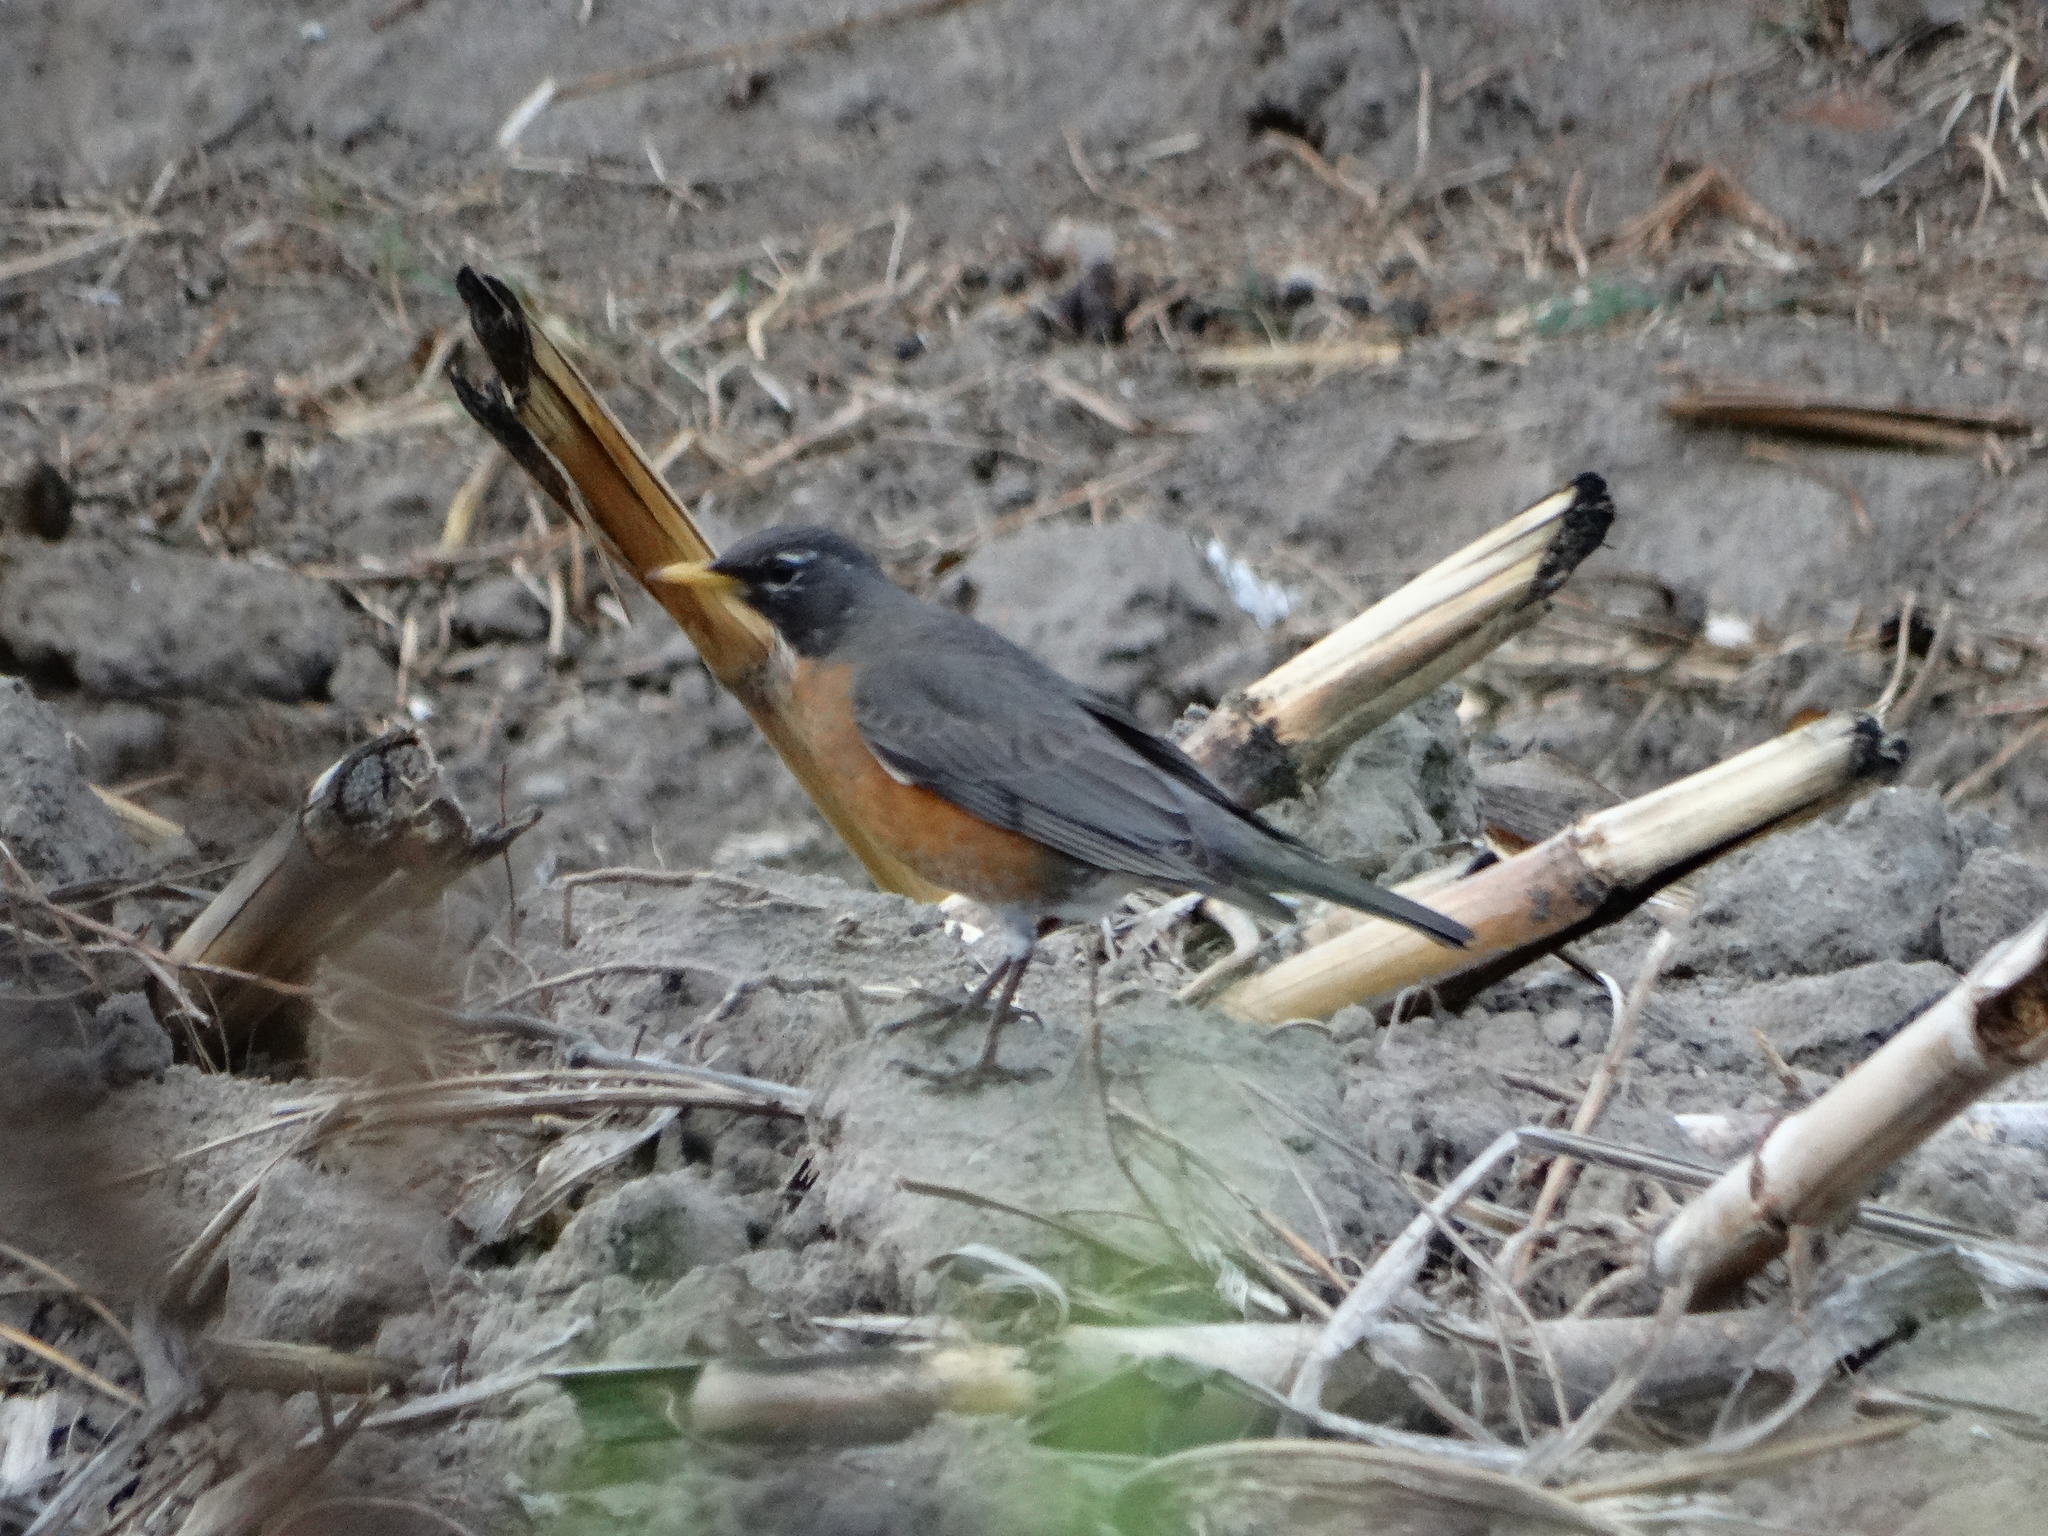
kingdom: Animalia
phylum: Chordata
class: Aves
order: Passeriformes
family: Turdidae
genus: Turdus
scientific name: Turdus migratorius
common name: American robin
